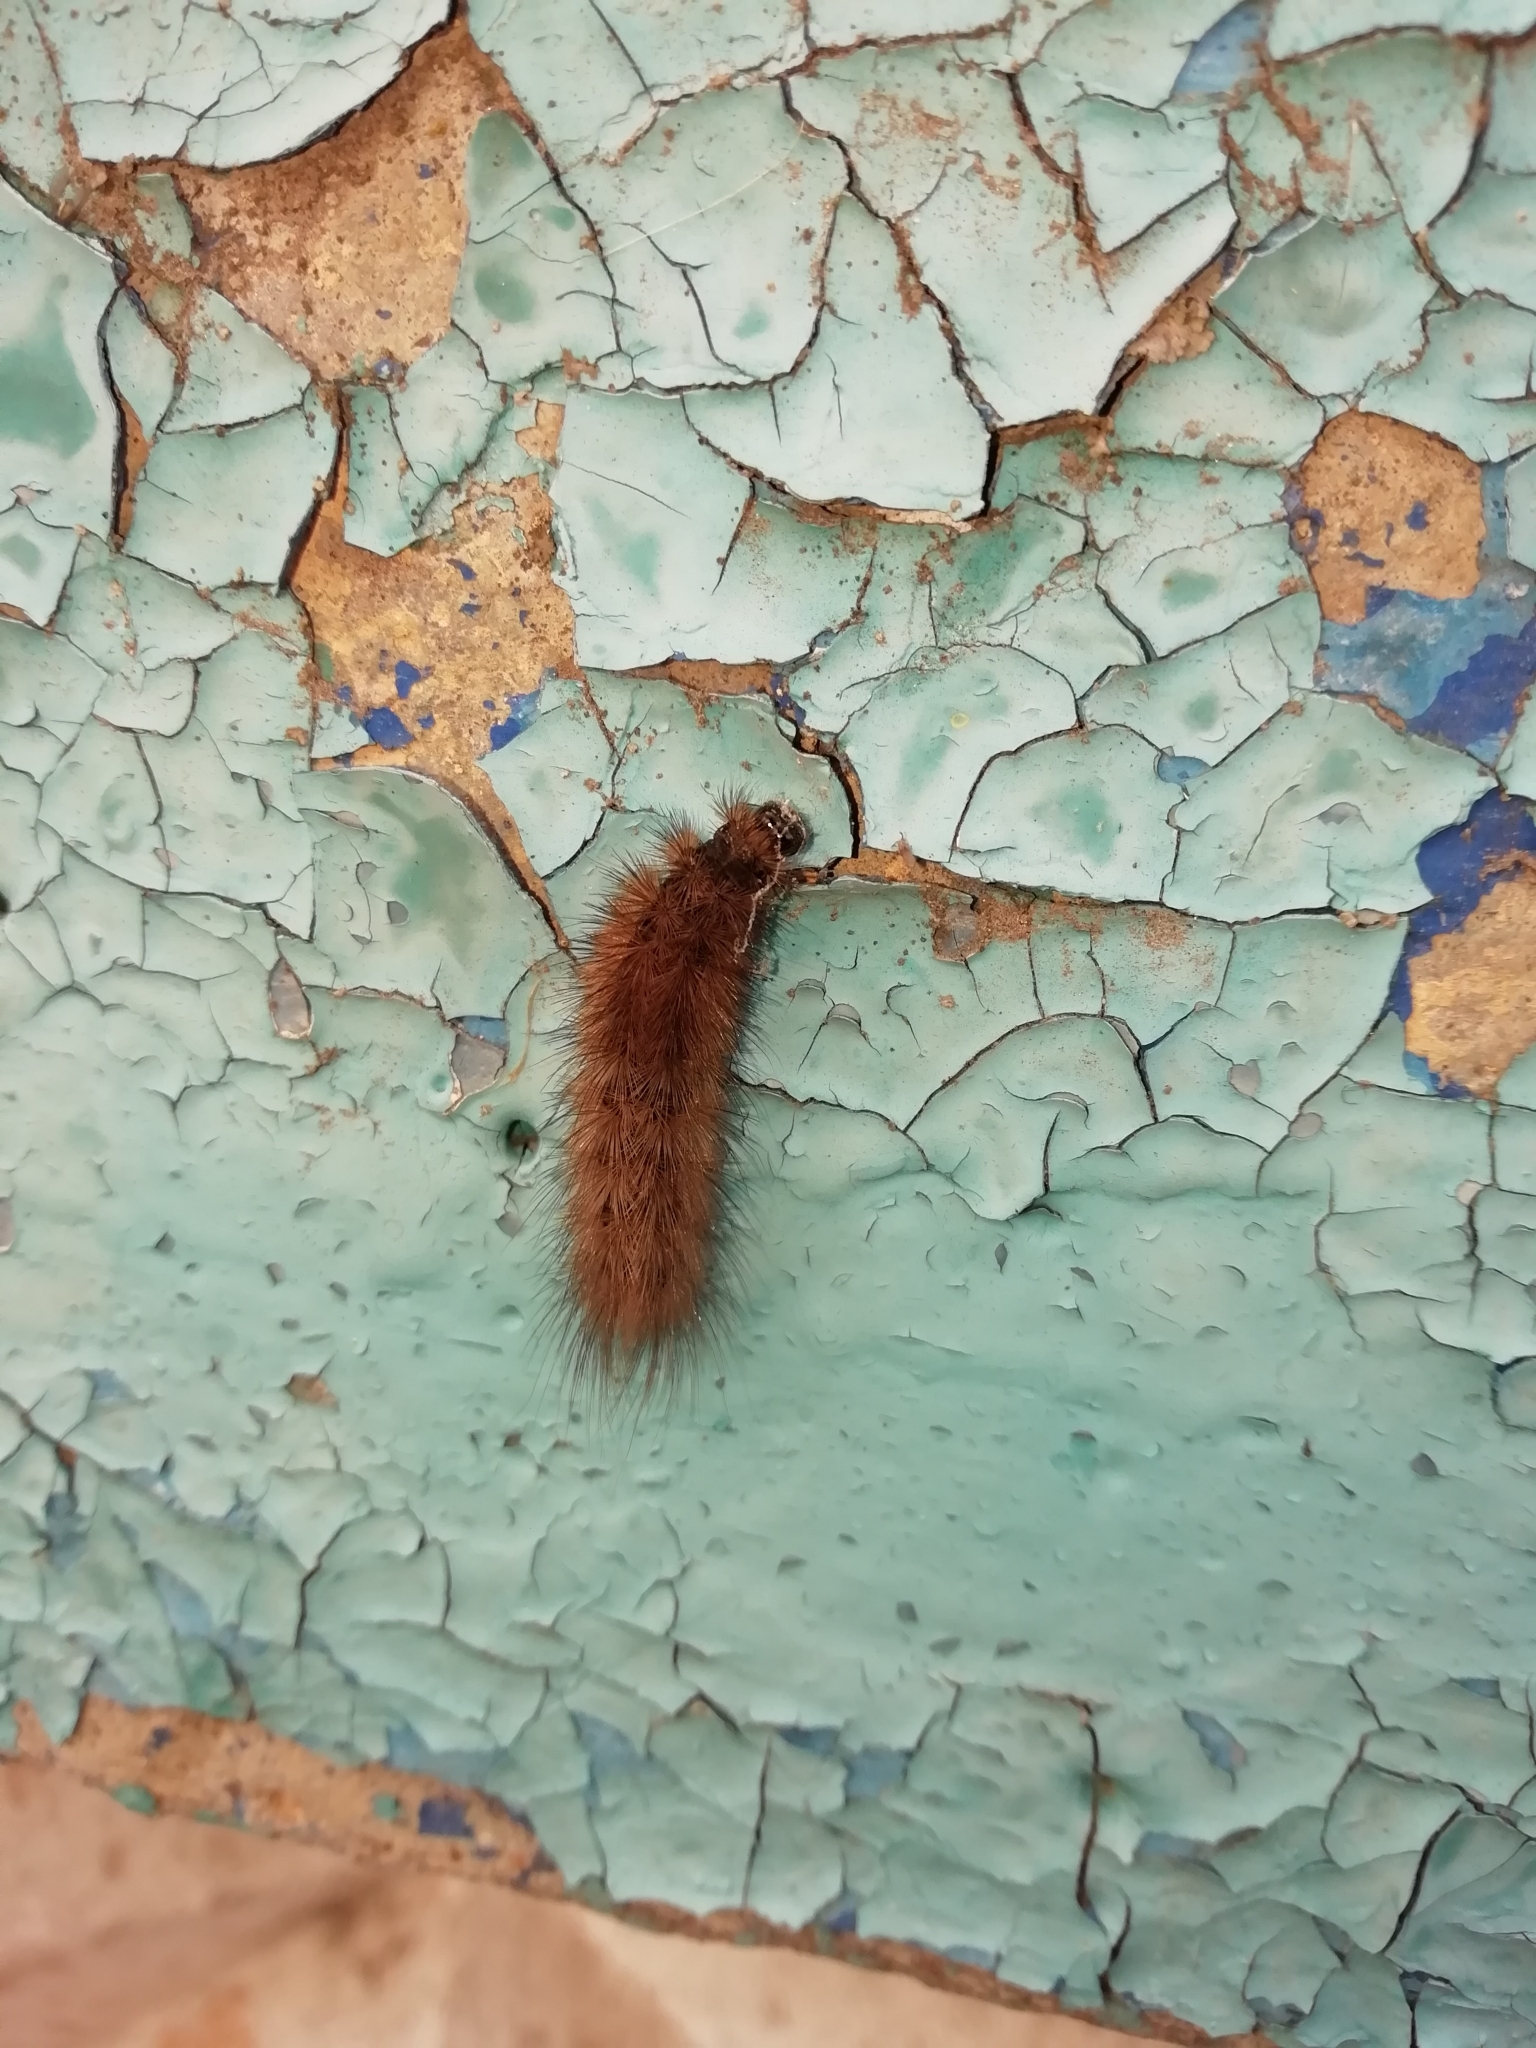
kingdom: Animalia
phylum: Arthropoda
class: Insecta
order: Lepidoptera
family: Erebidae
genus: Phragmatobia
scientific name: Phragmatobia fuliginosa
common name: Ruby tiger
